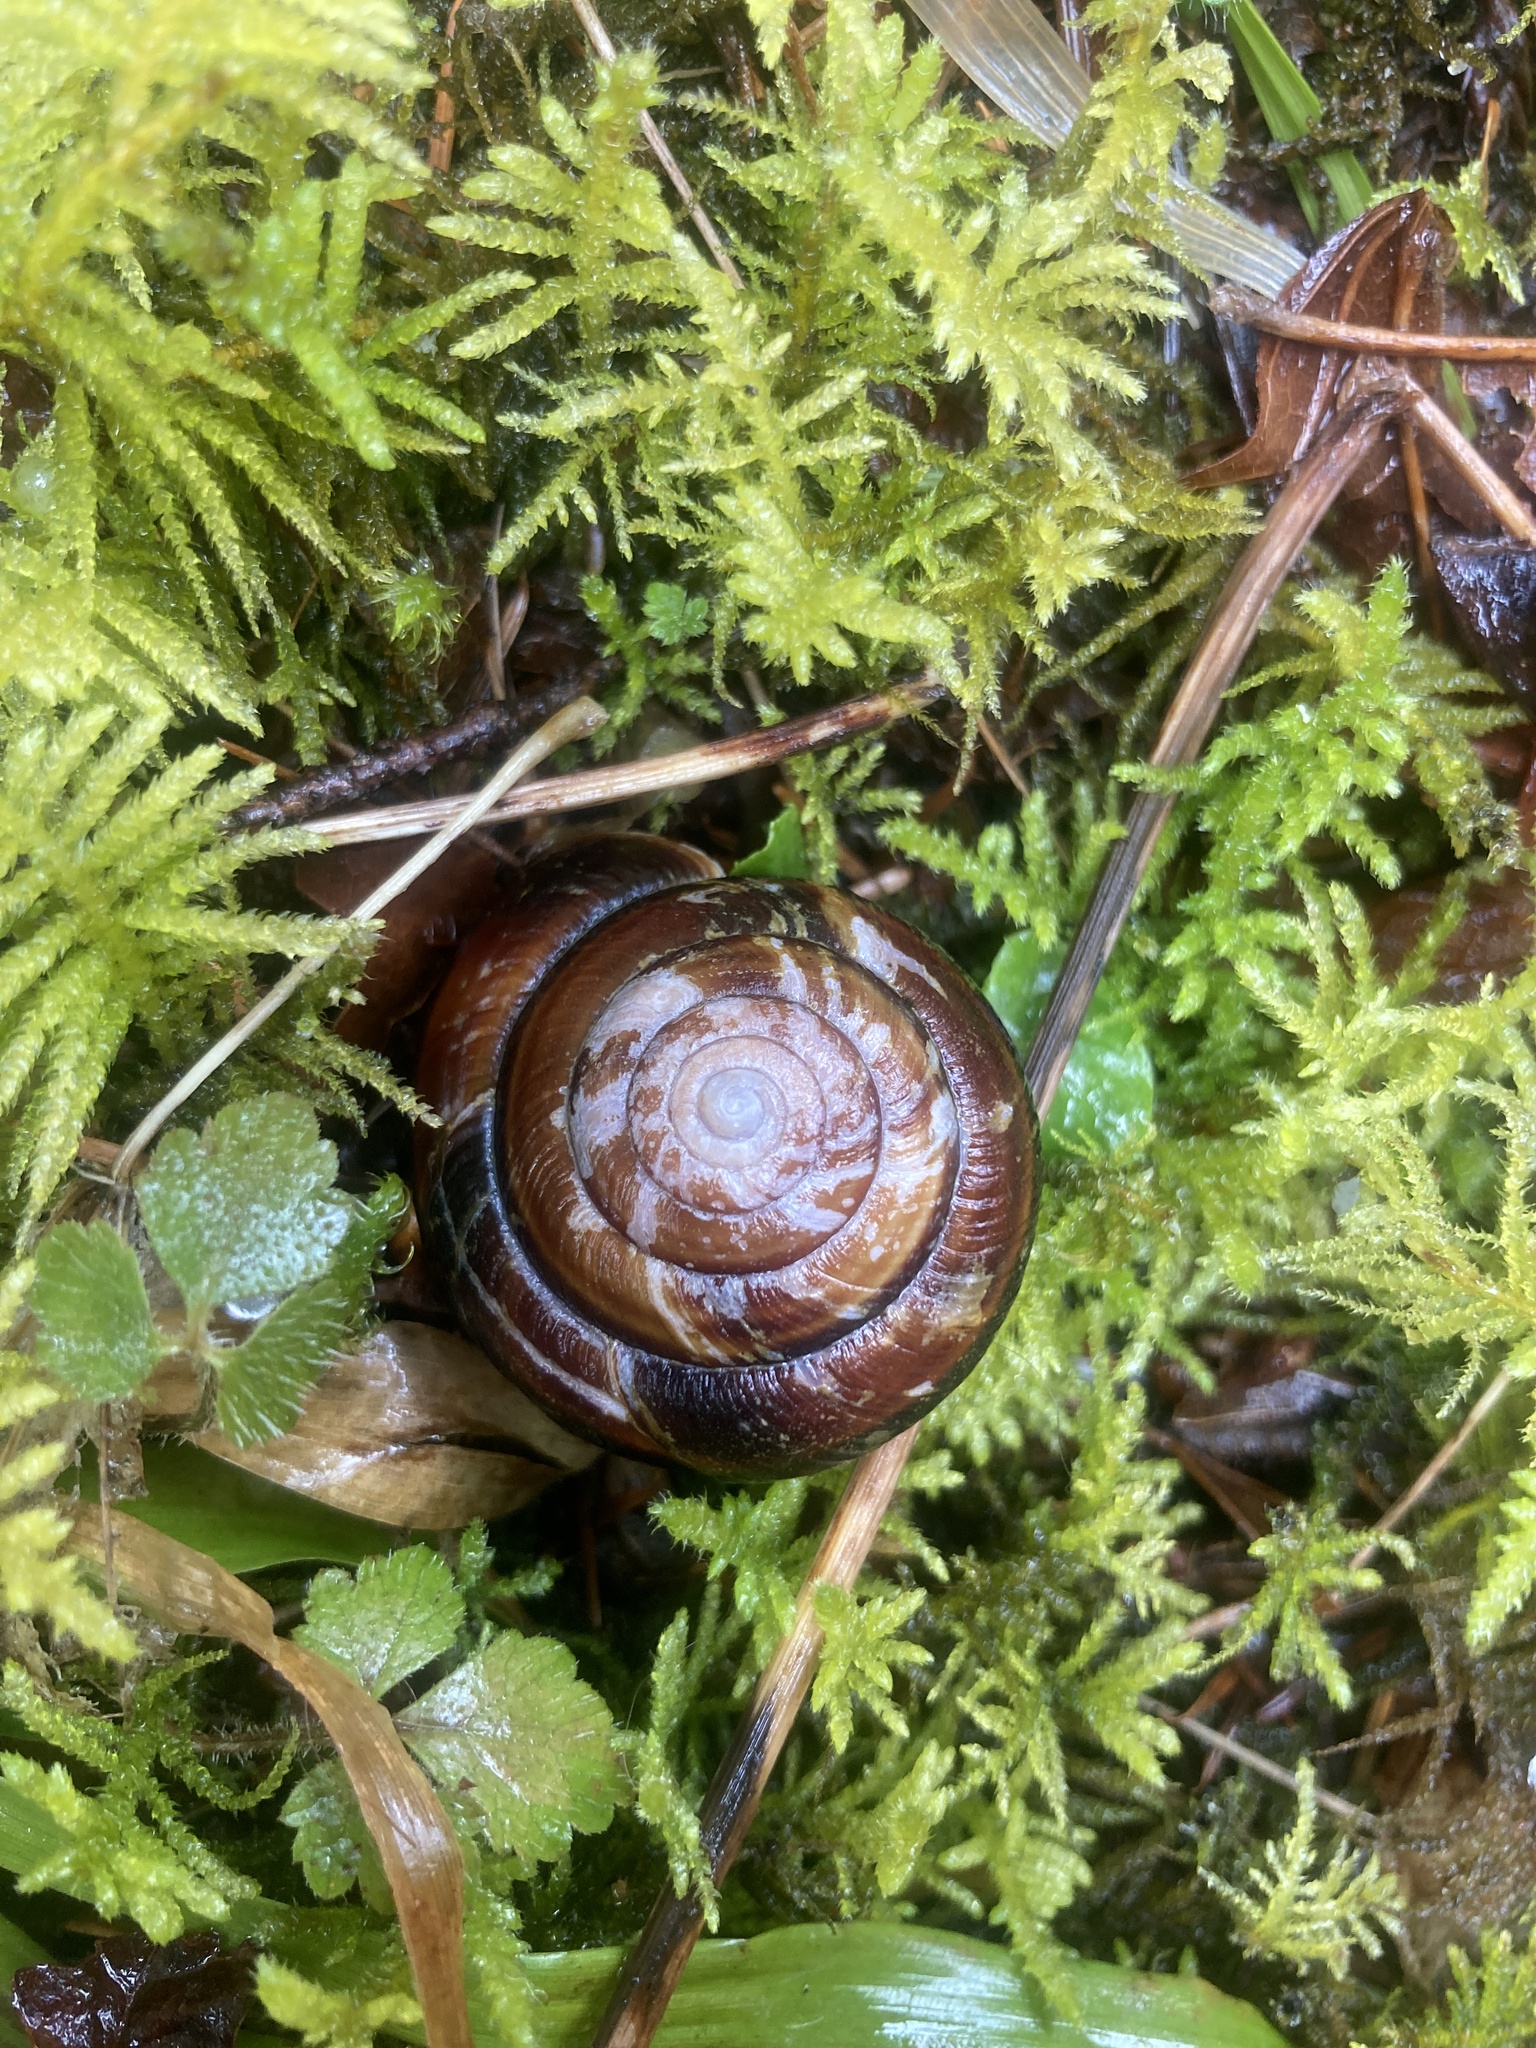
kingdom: Animalia
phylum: Mollusca
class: Gastropoda
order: Stylommatophora
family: Xanthonychidae
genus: Monadenia
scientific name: Monadenia fidelis
